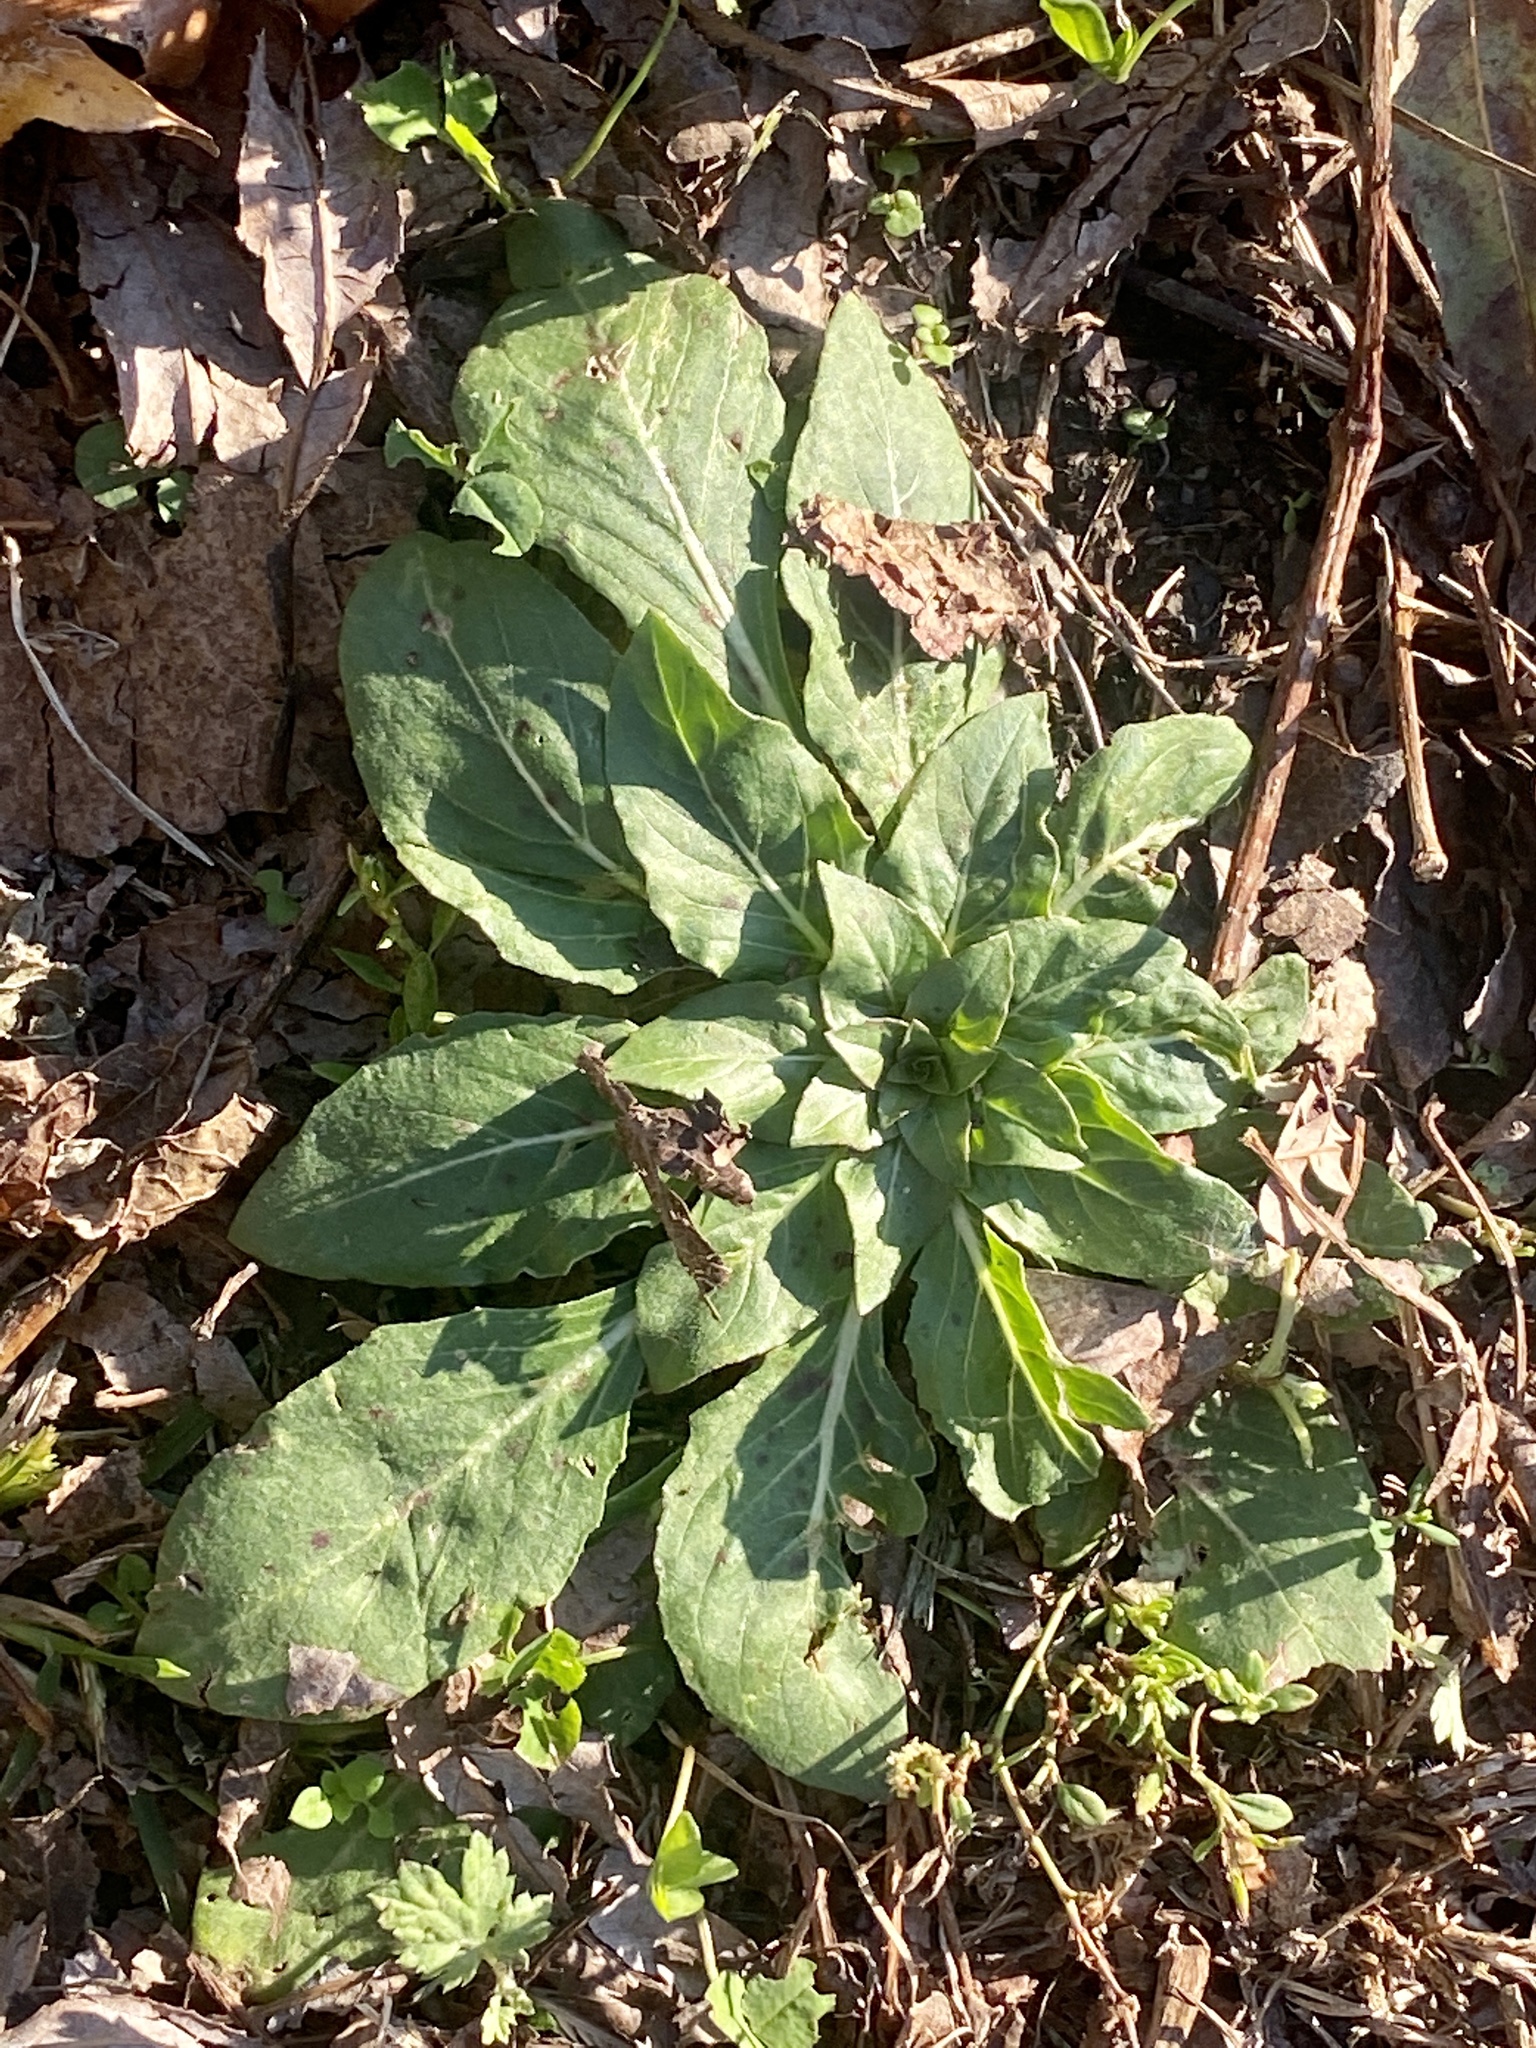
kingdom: Plantae
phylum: Tracheophyta
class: Magnoliopsida
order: Myrtales
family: Onagraceae
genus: Oenothera
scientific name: Oenothera biennis
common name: Common evening-primrose
